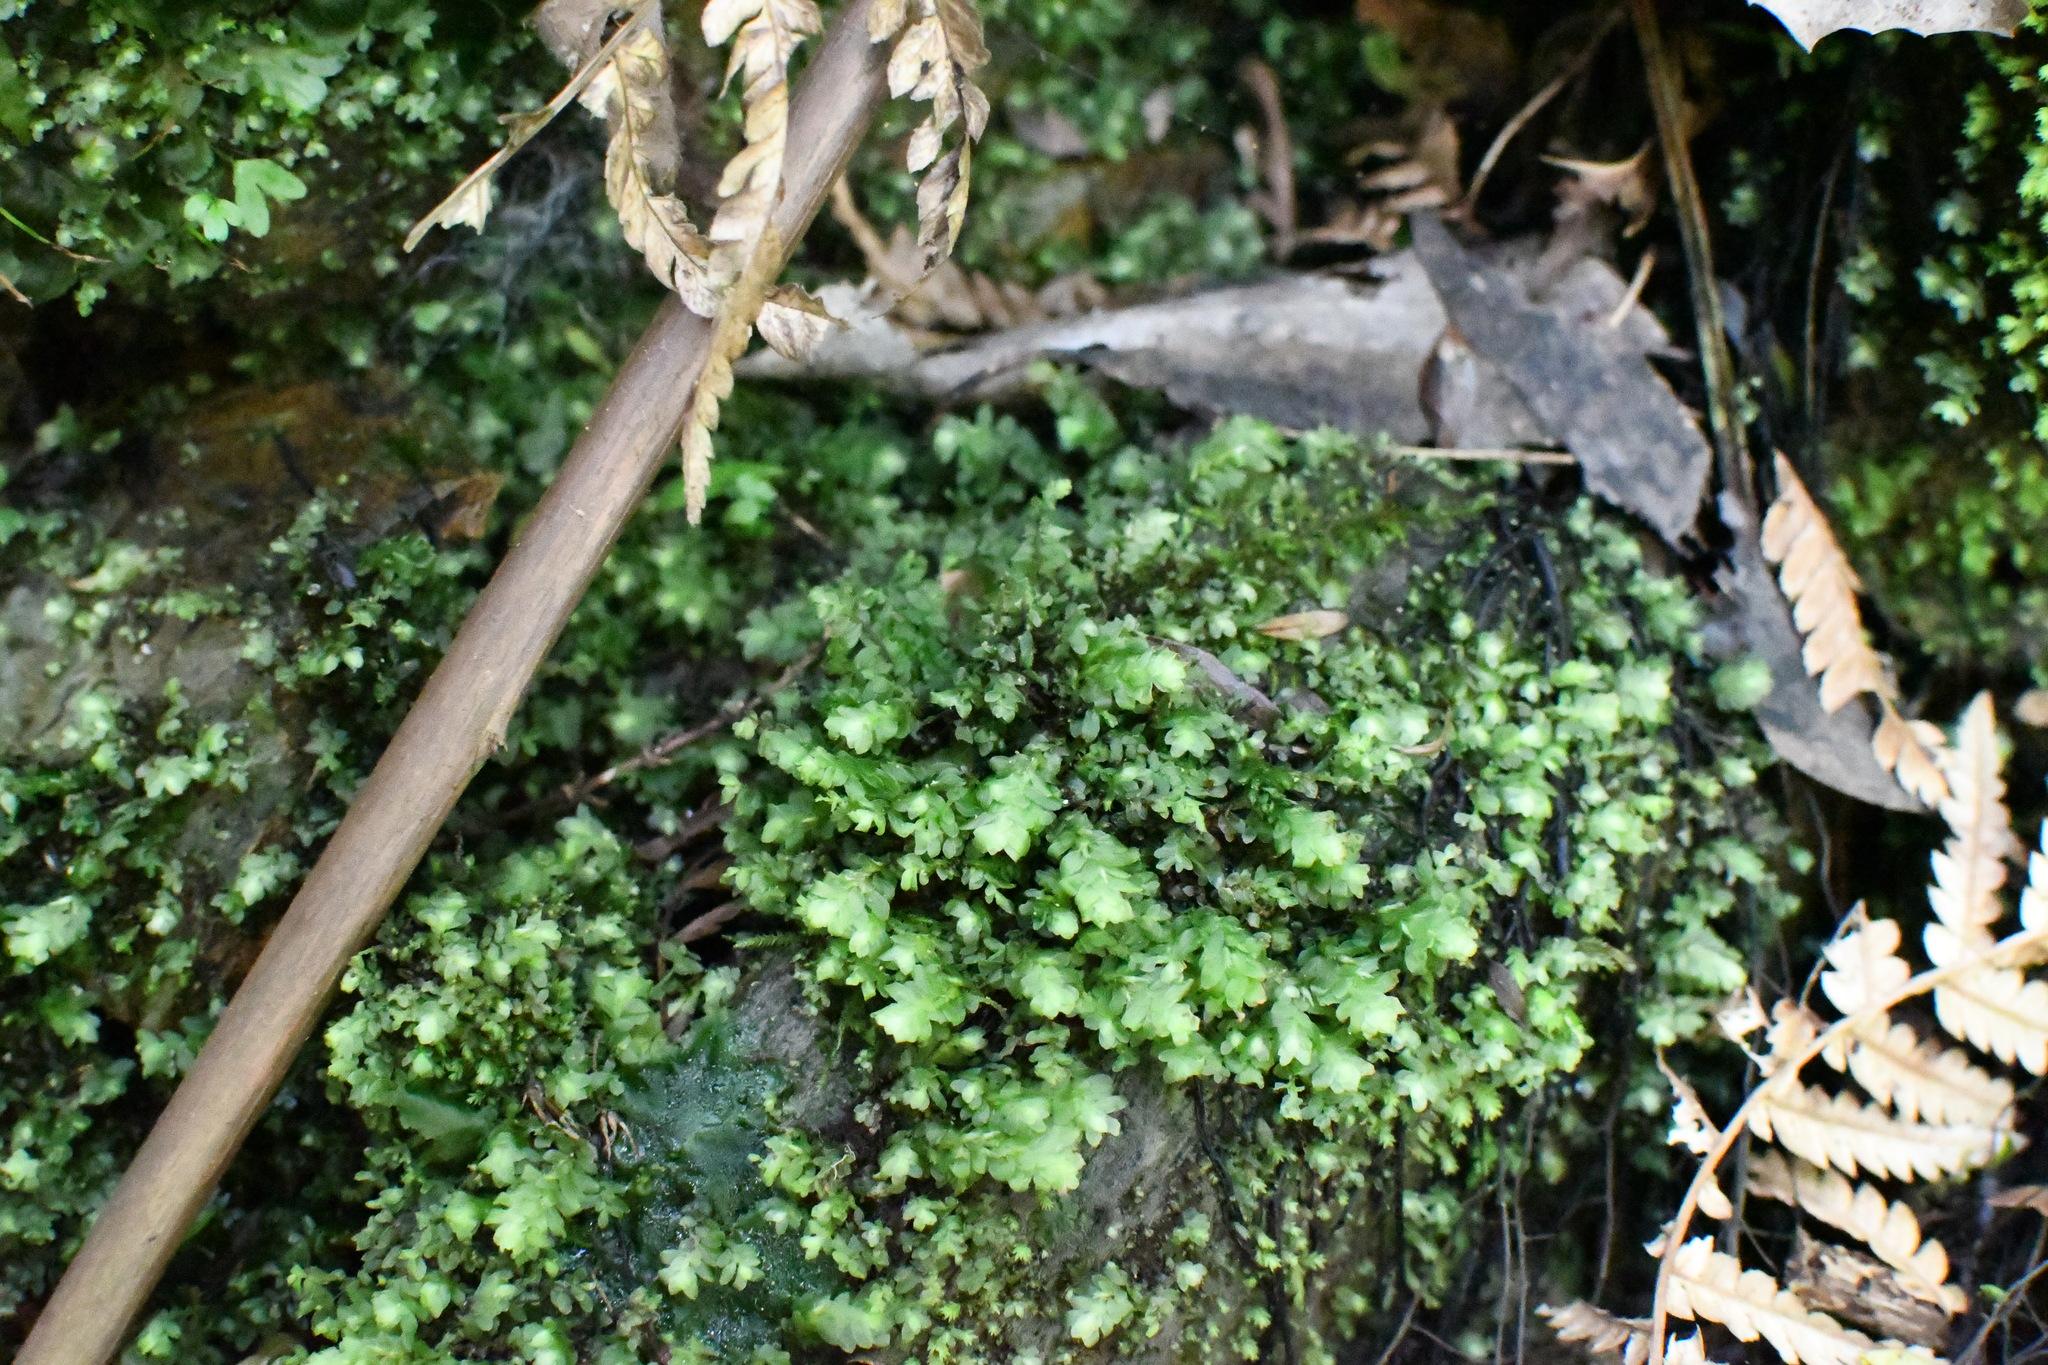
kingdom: Plantae
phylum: Bryophyta
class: Bryopsida
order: Hookeriales
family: Daltoniaceae
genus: Achrophyllum
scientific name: Achrophyllum dentatum
